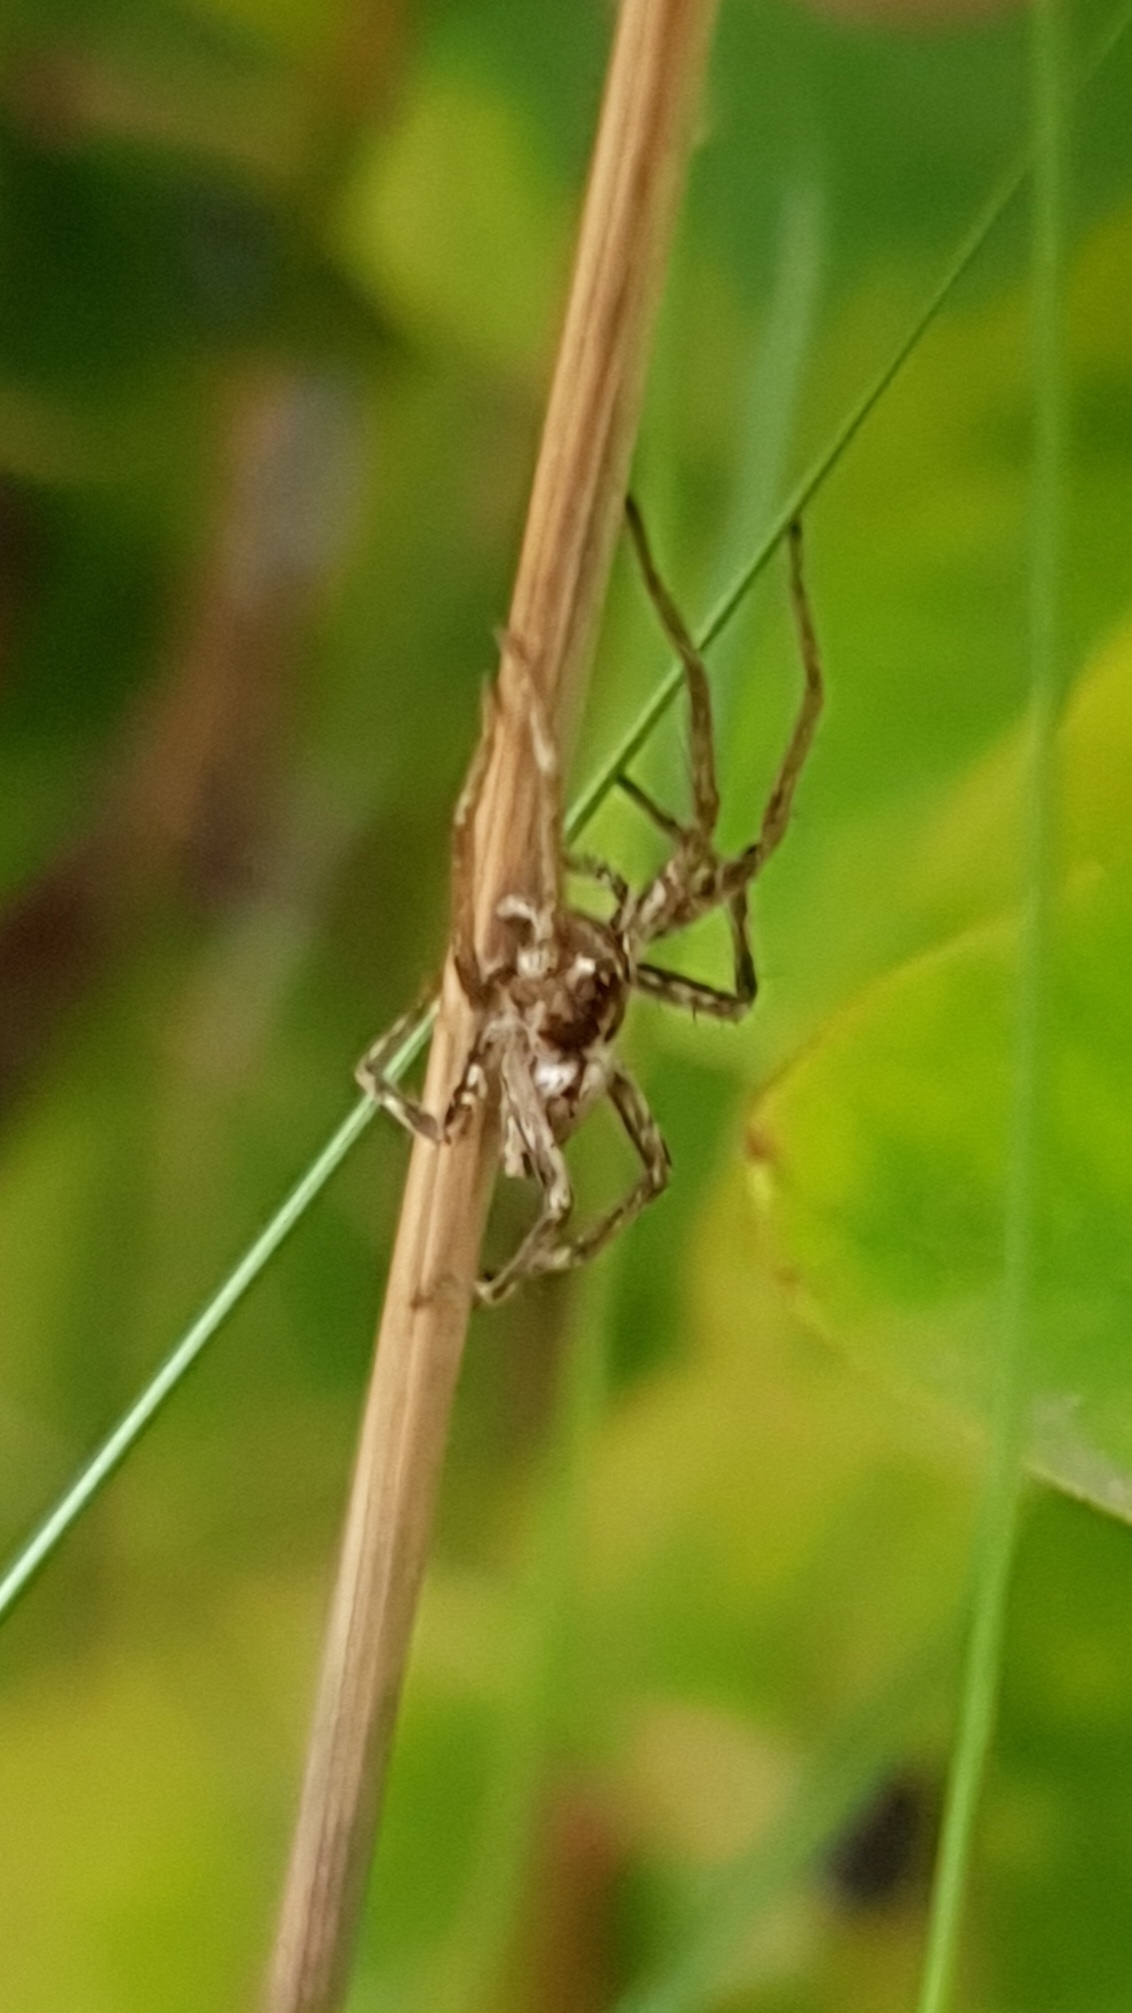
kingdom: Animalia
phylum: Arthropoda
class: Arachnida
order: Araneae
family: Pisauridae
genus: Pisaura
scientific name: Pisaura mirabilis
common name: Tent spider
